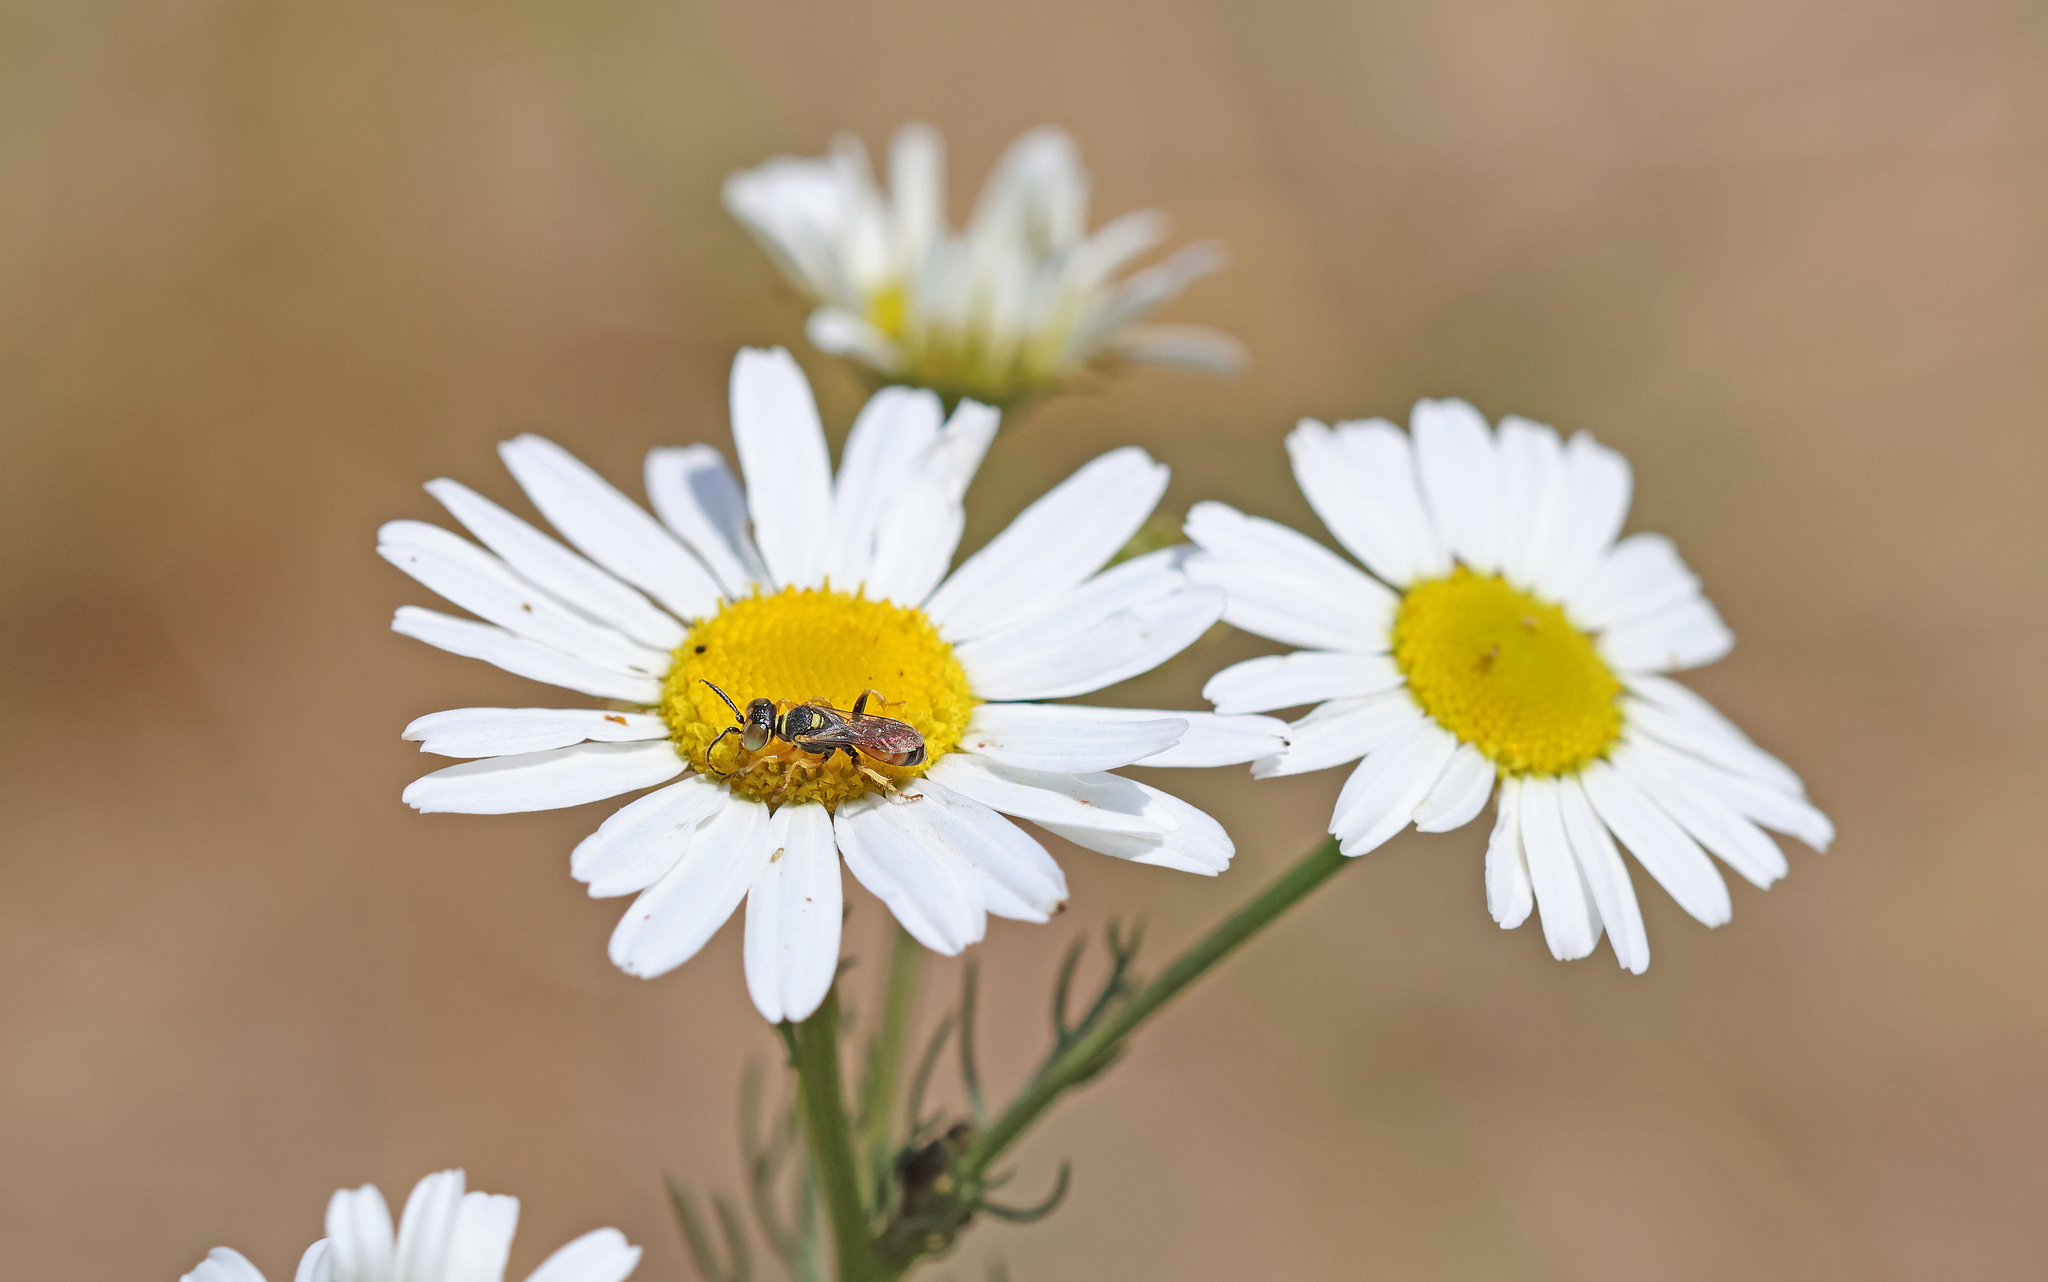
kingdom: Animalia
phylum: Arthropoda
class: Insecta
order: Hymenoptera
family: Crabronidae
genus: Dinetus
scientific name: Dinetus pictus
